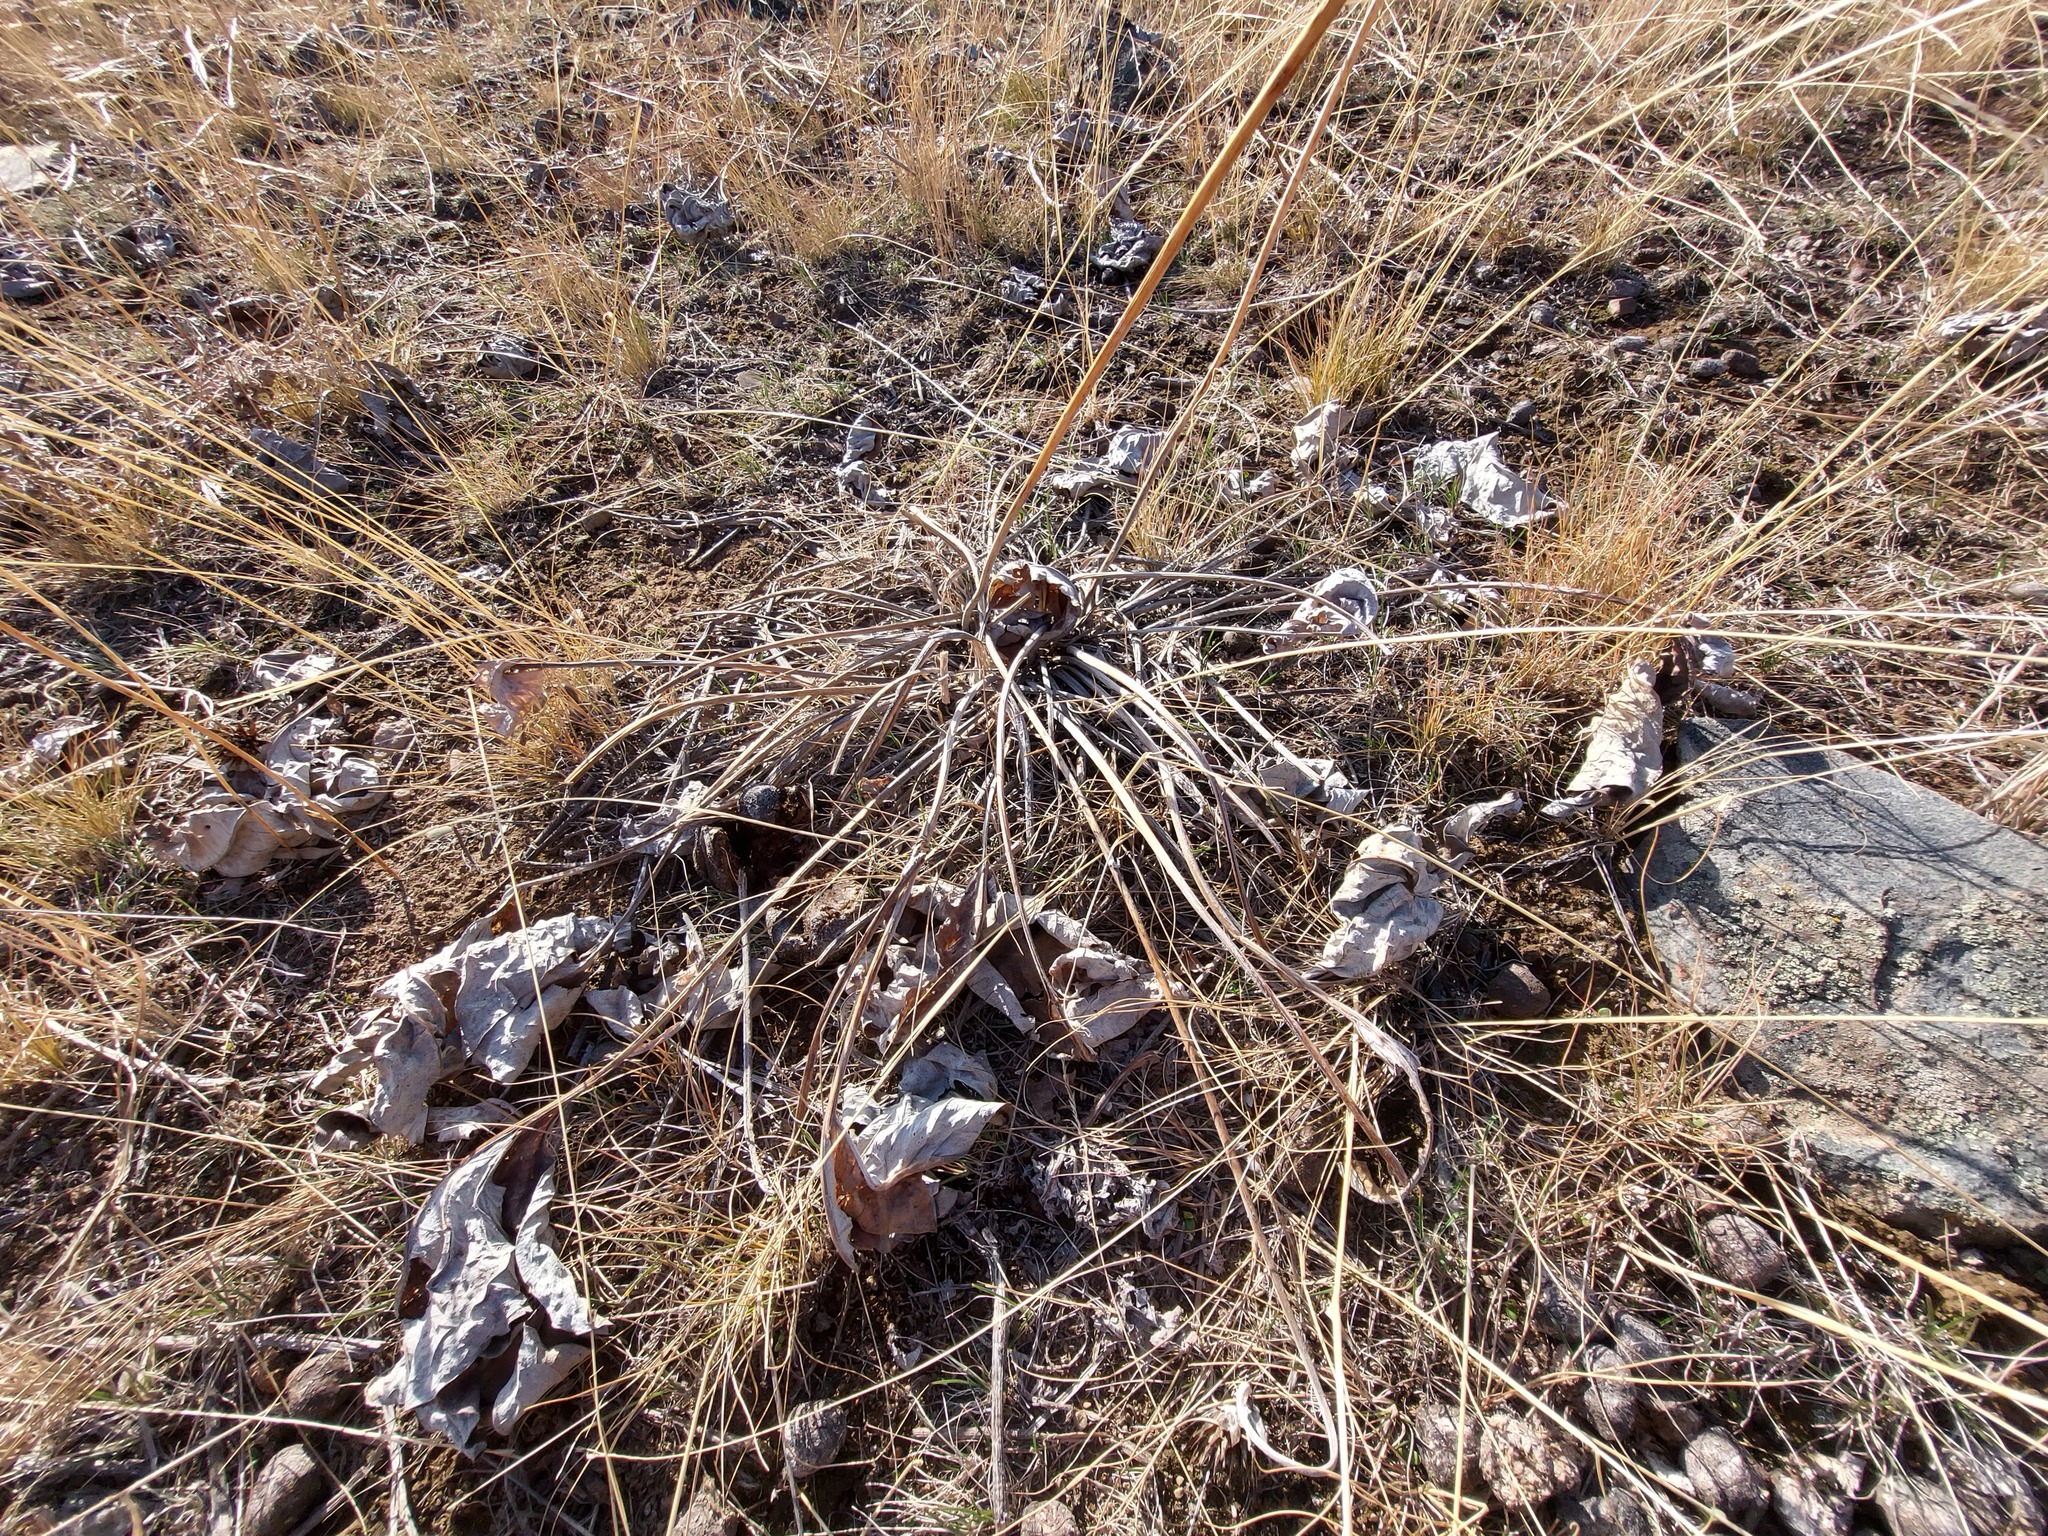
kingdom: Plantae
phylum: Tracheophyta
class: Magnoliopsida
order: Asterales
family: Asteraceae
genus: Wyethia
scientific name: Wyethia sagittata
